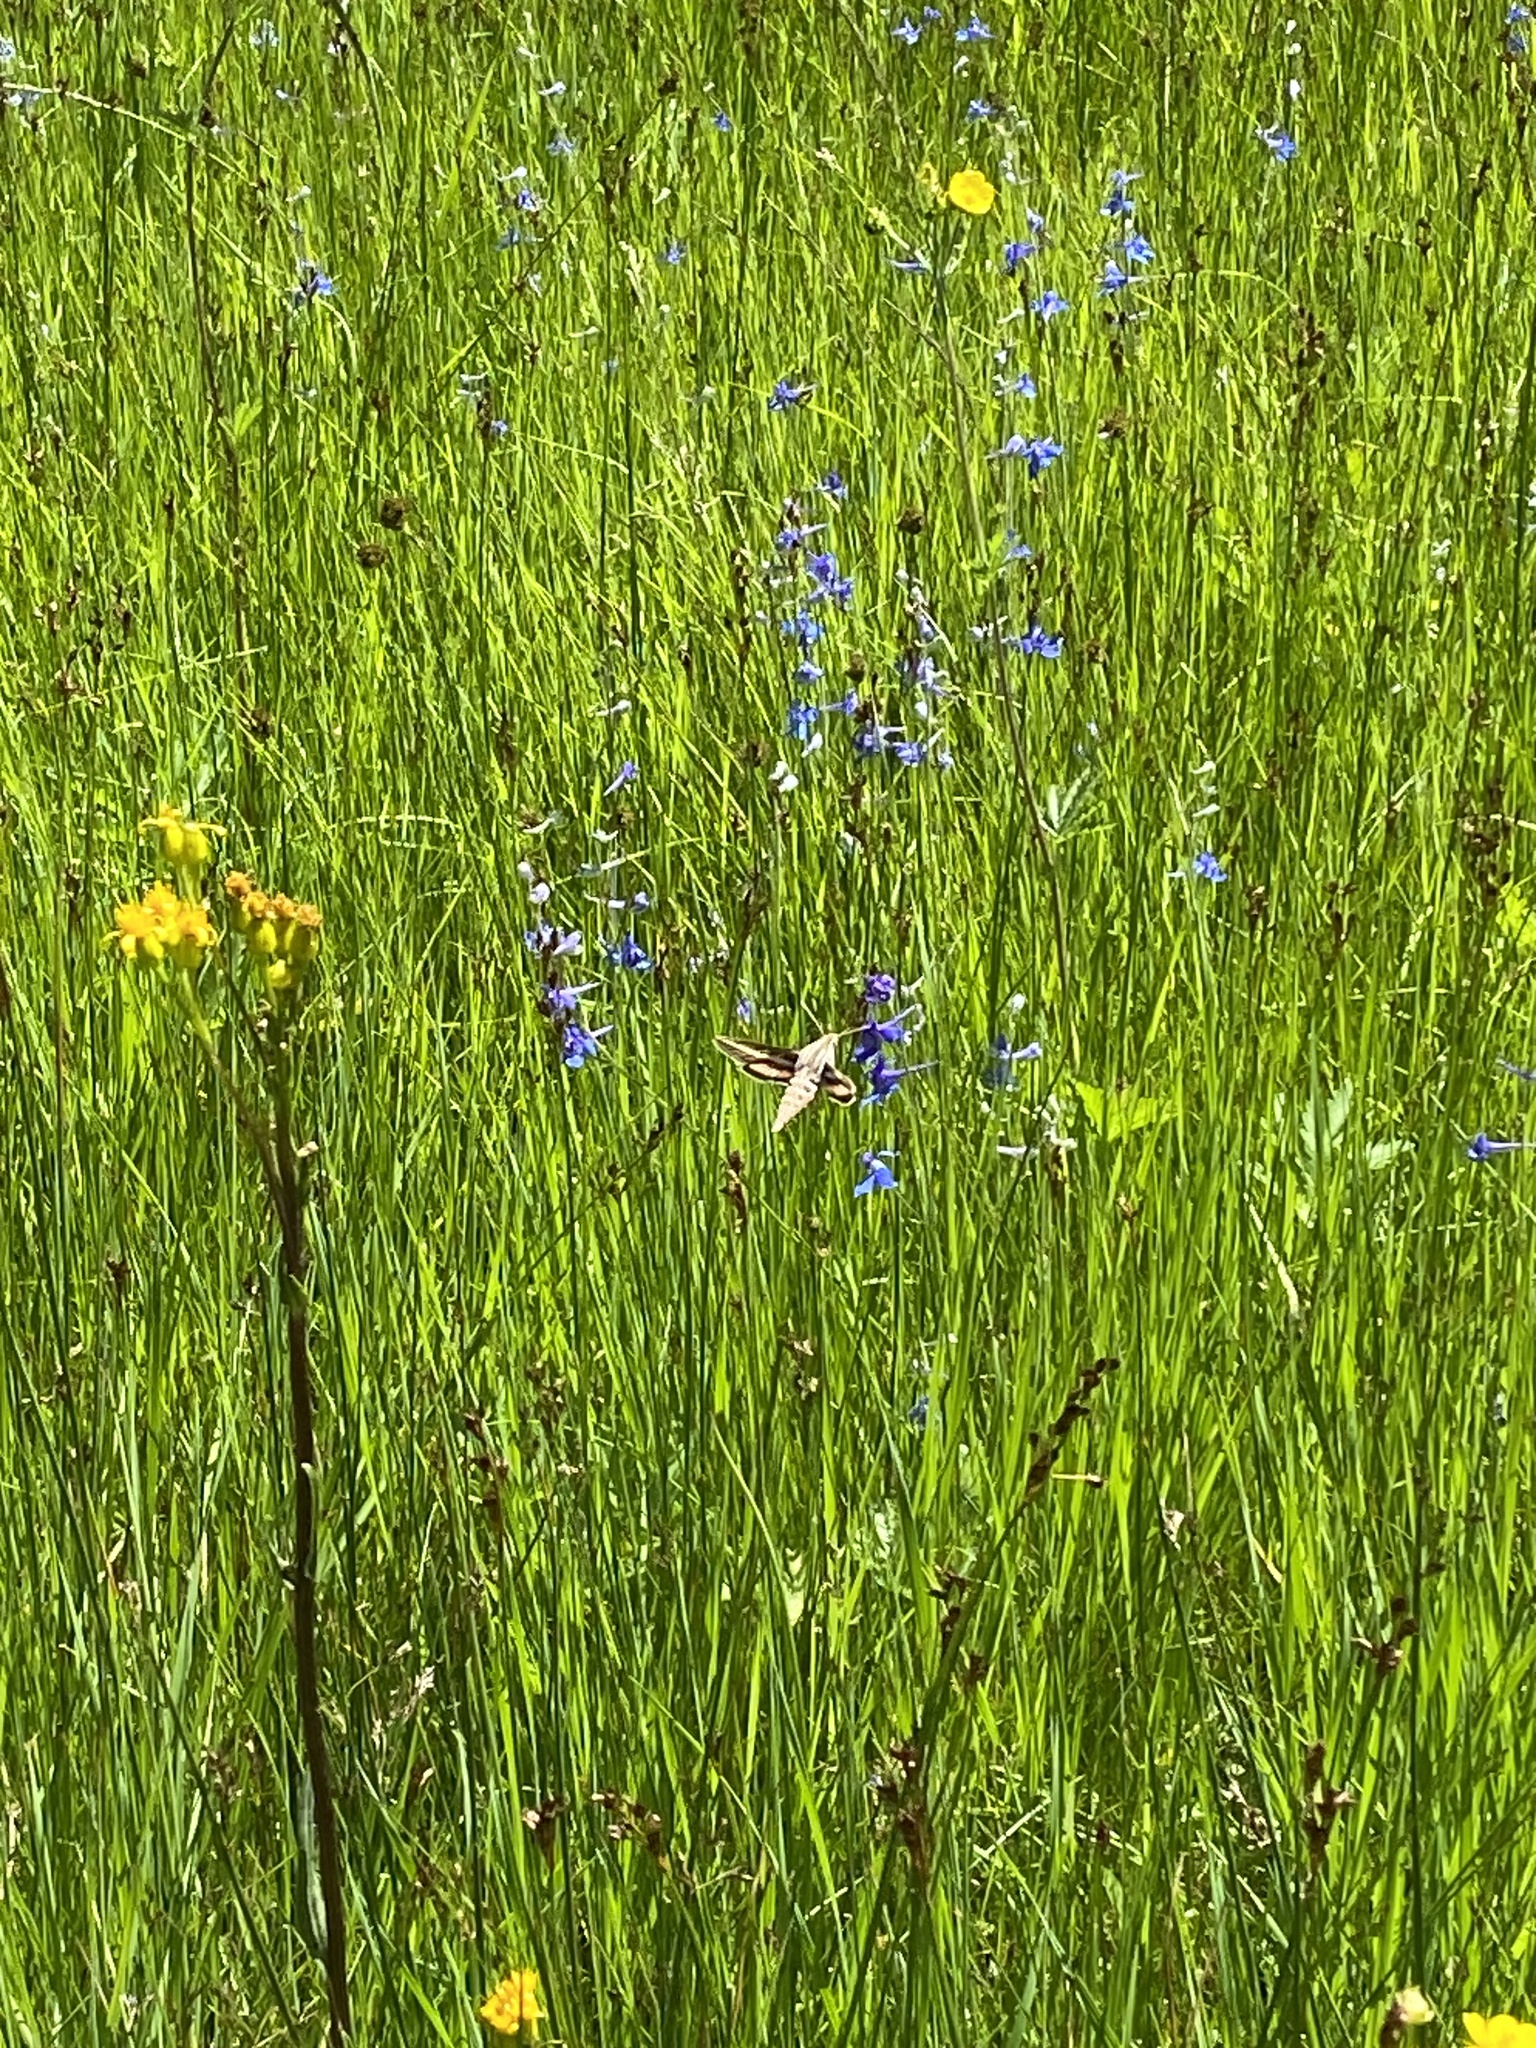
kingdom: Animalia
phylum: Arthropoda
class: Insecta
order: Lepidoptera
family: Sphingidae
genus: Hyles
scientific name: Hyles lineata
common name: White-lined sphinx
